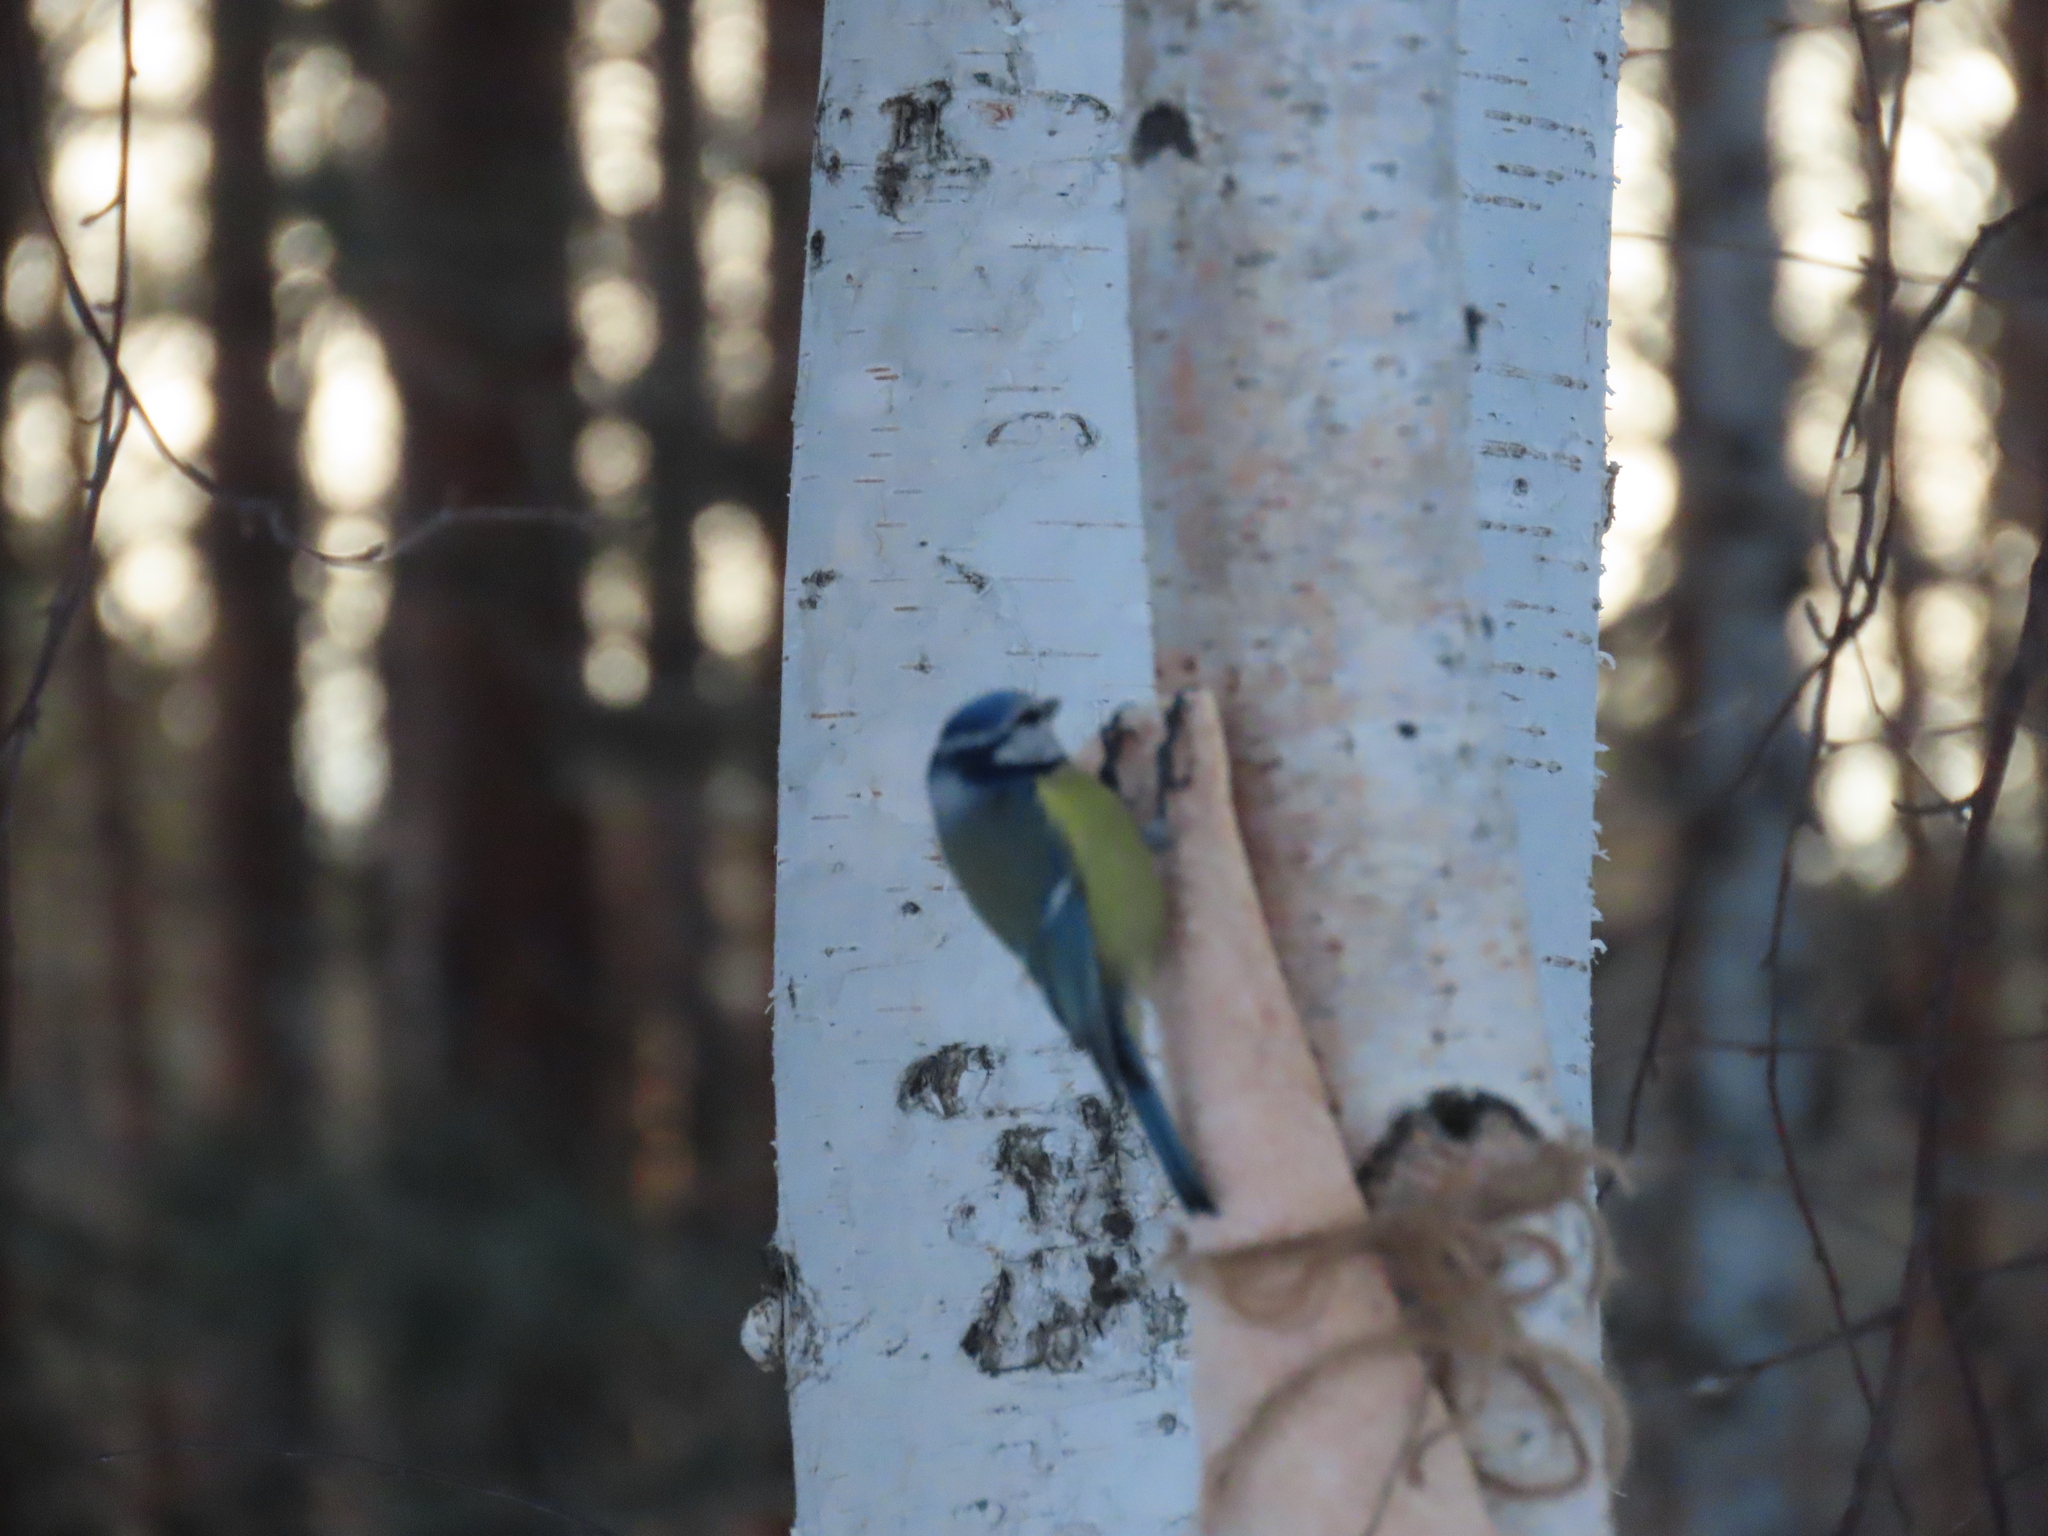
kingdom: Animalia
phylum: Chordata
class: Aves
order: Passeriformes
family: Paridae
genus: Cyanistes
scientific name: Cyanistes caeruleus
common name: Eurasian blue tit
